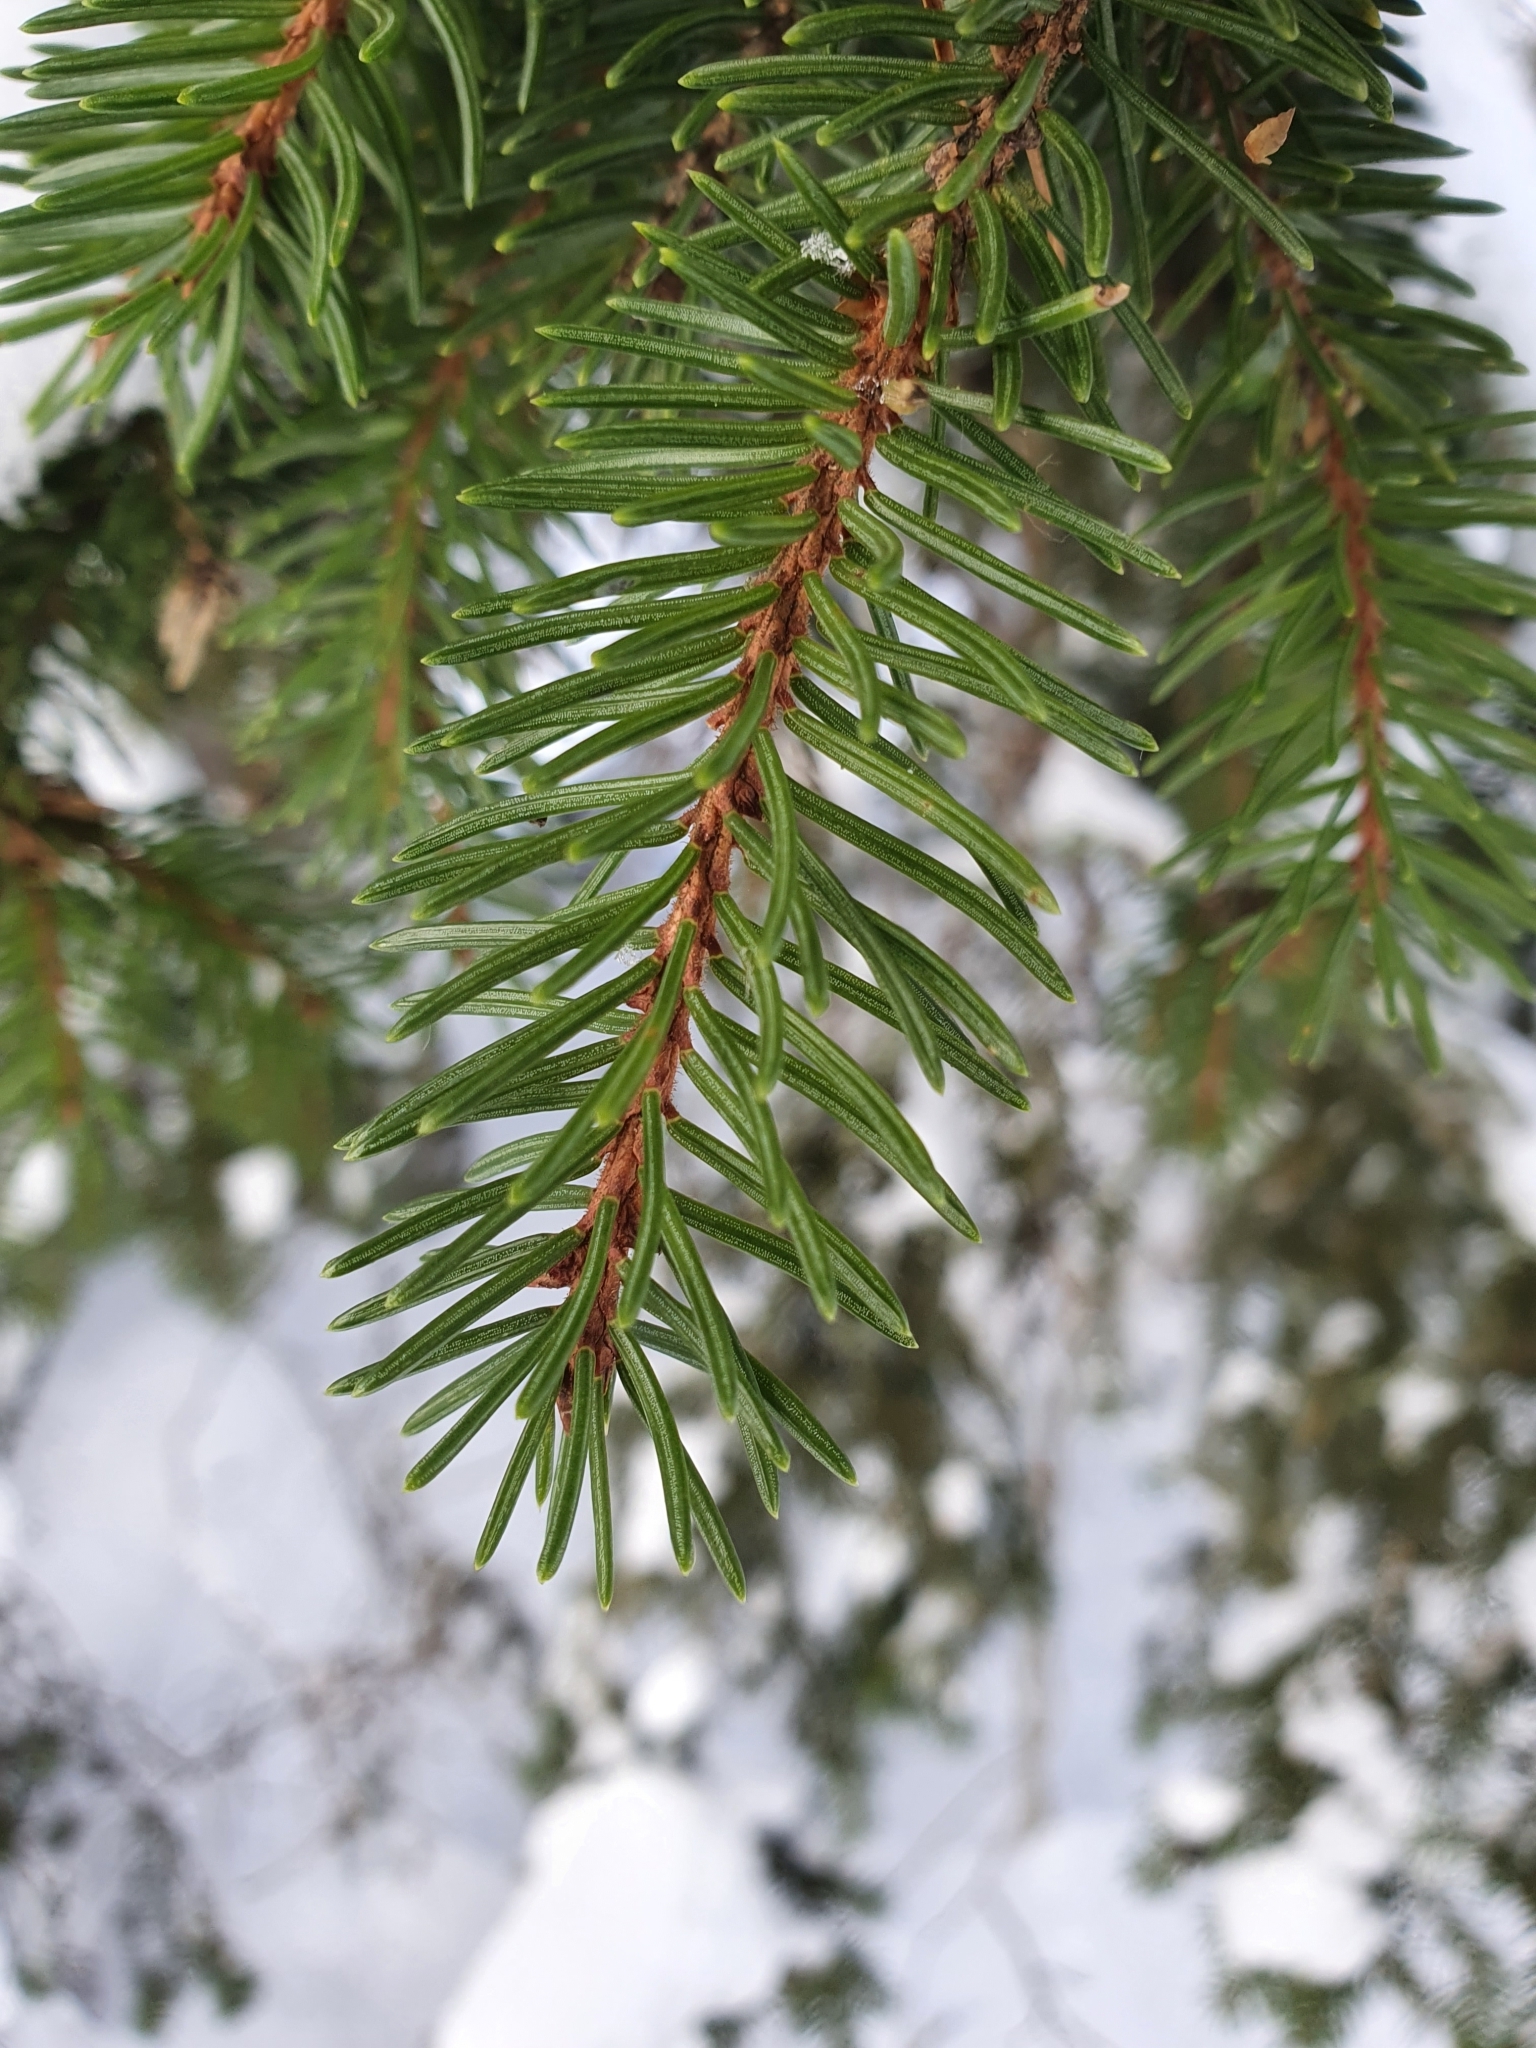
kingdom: Plantae
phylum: Tracheophyta
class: Pinopsida
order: Pinales
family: Pinaceae
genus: Picea
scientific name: Picea abies
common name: Norway spruce
